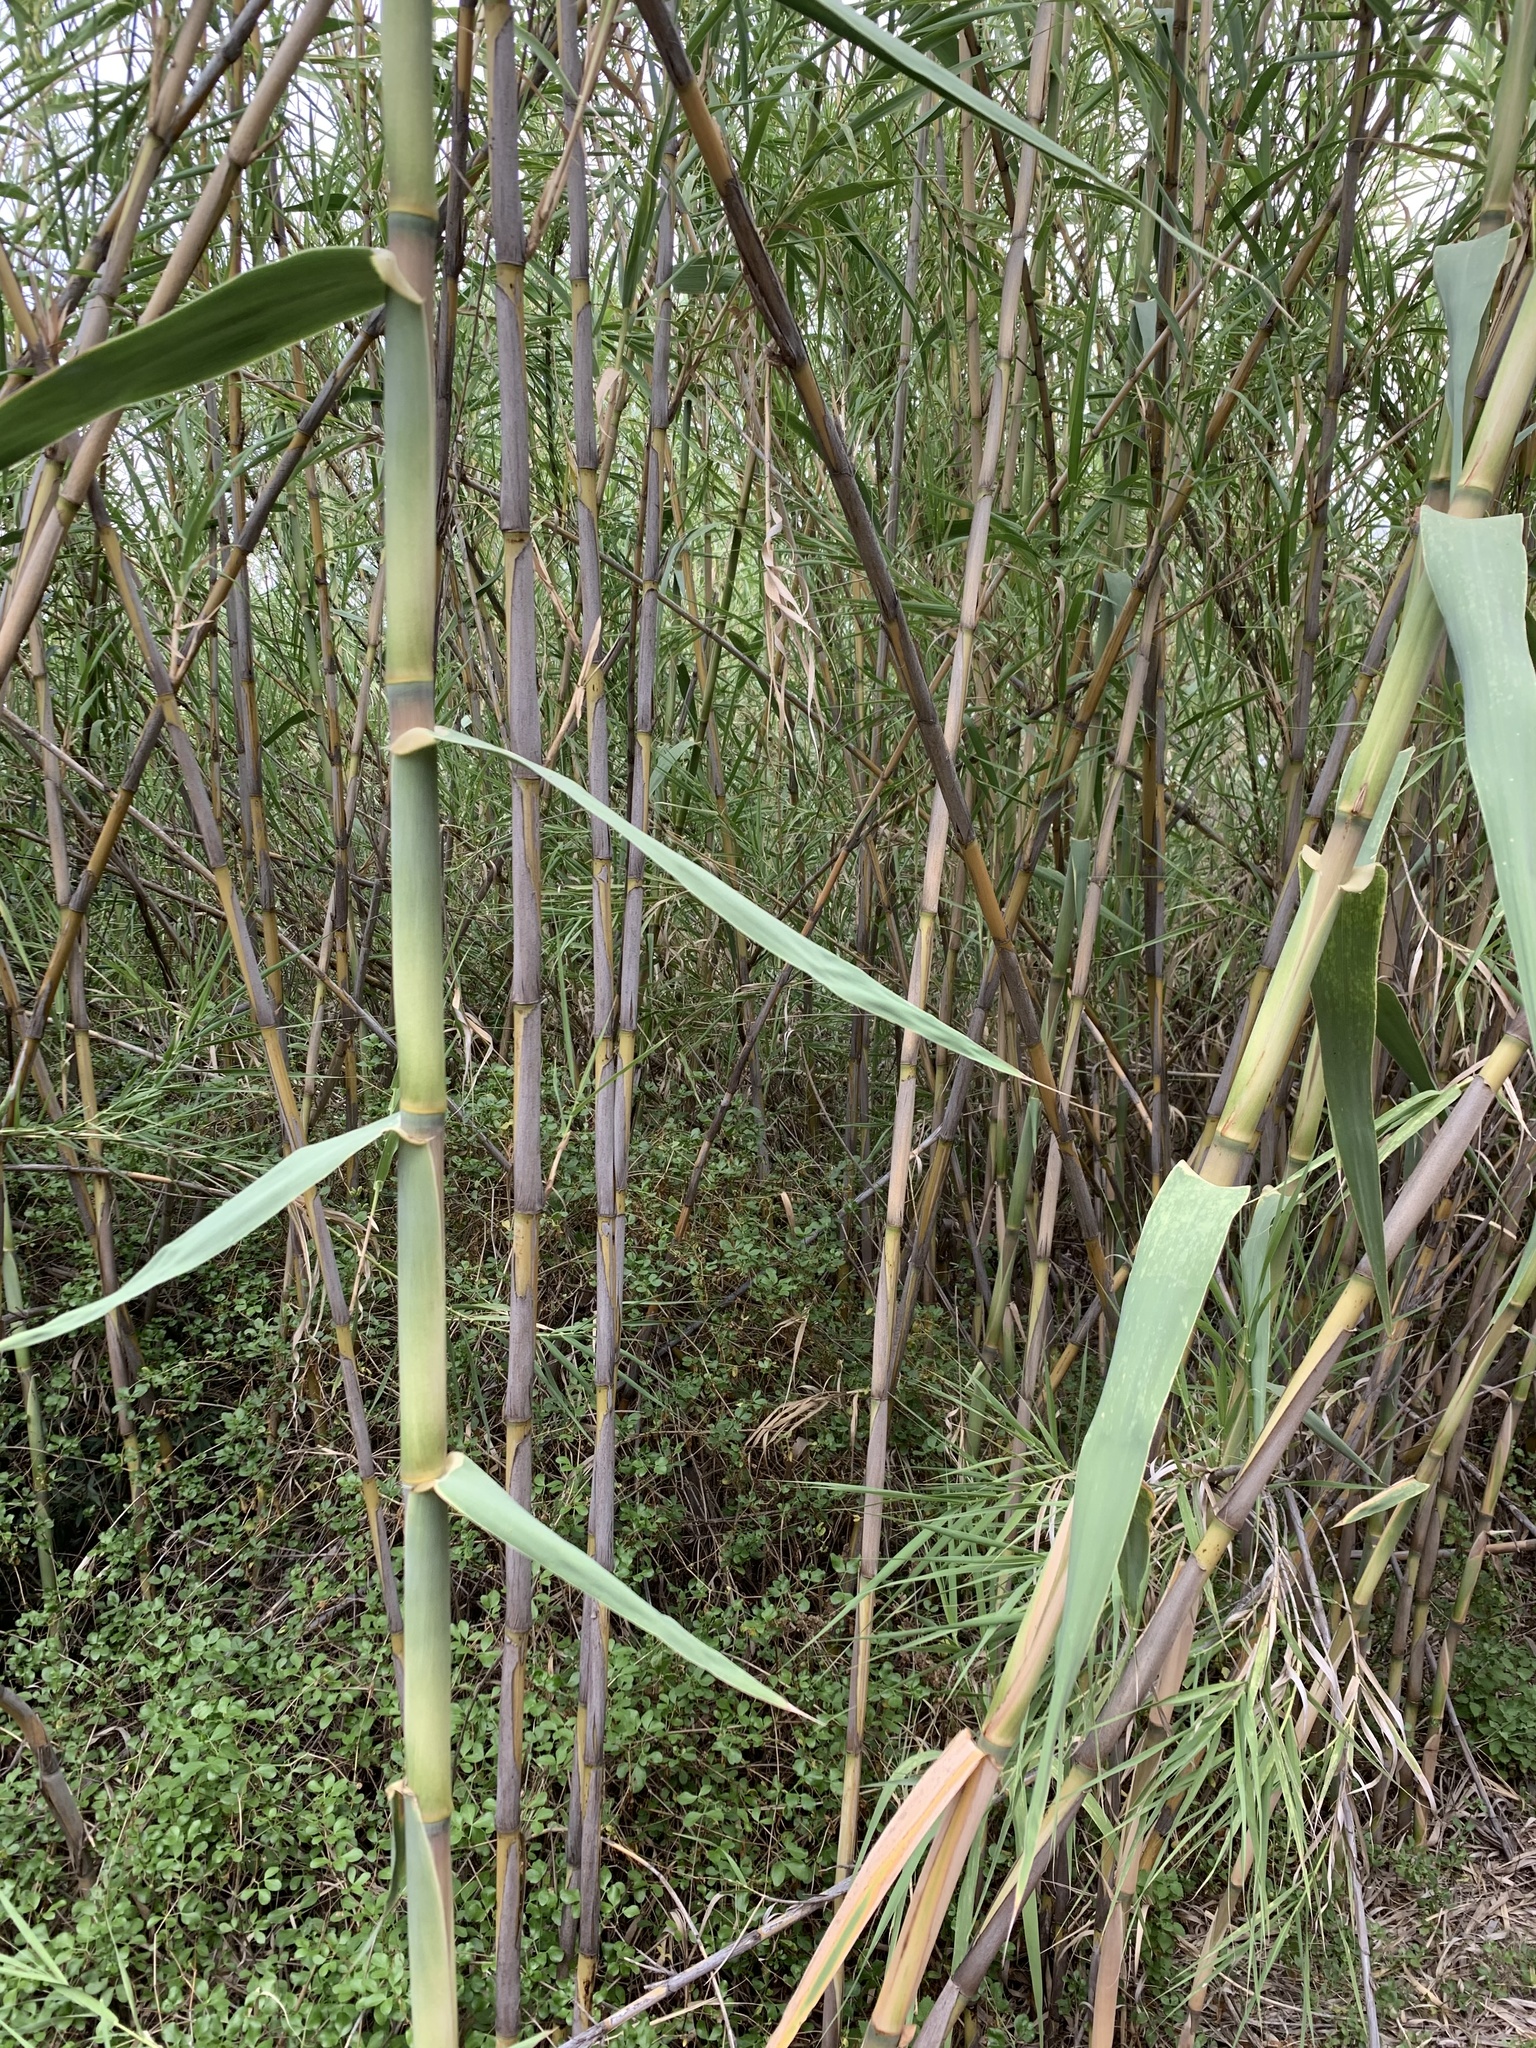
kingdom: Plantae
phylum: Tracheophyta
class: Liliopsida
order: Poales
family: Poaceae
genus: Arundo
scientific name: Arundo donax
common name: Giant reed
